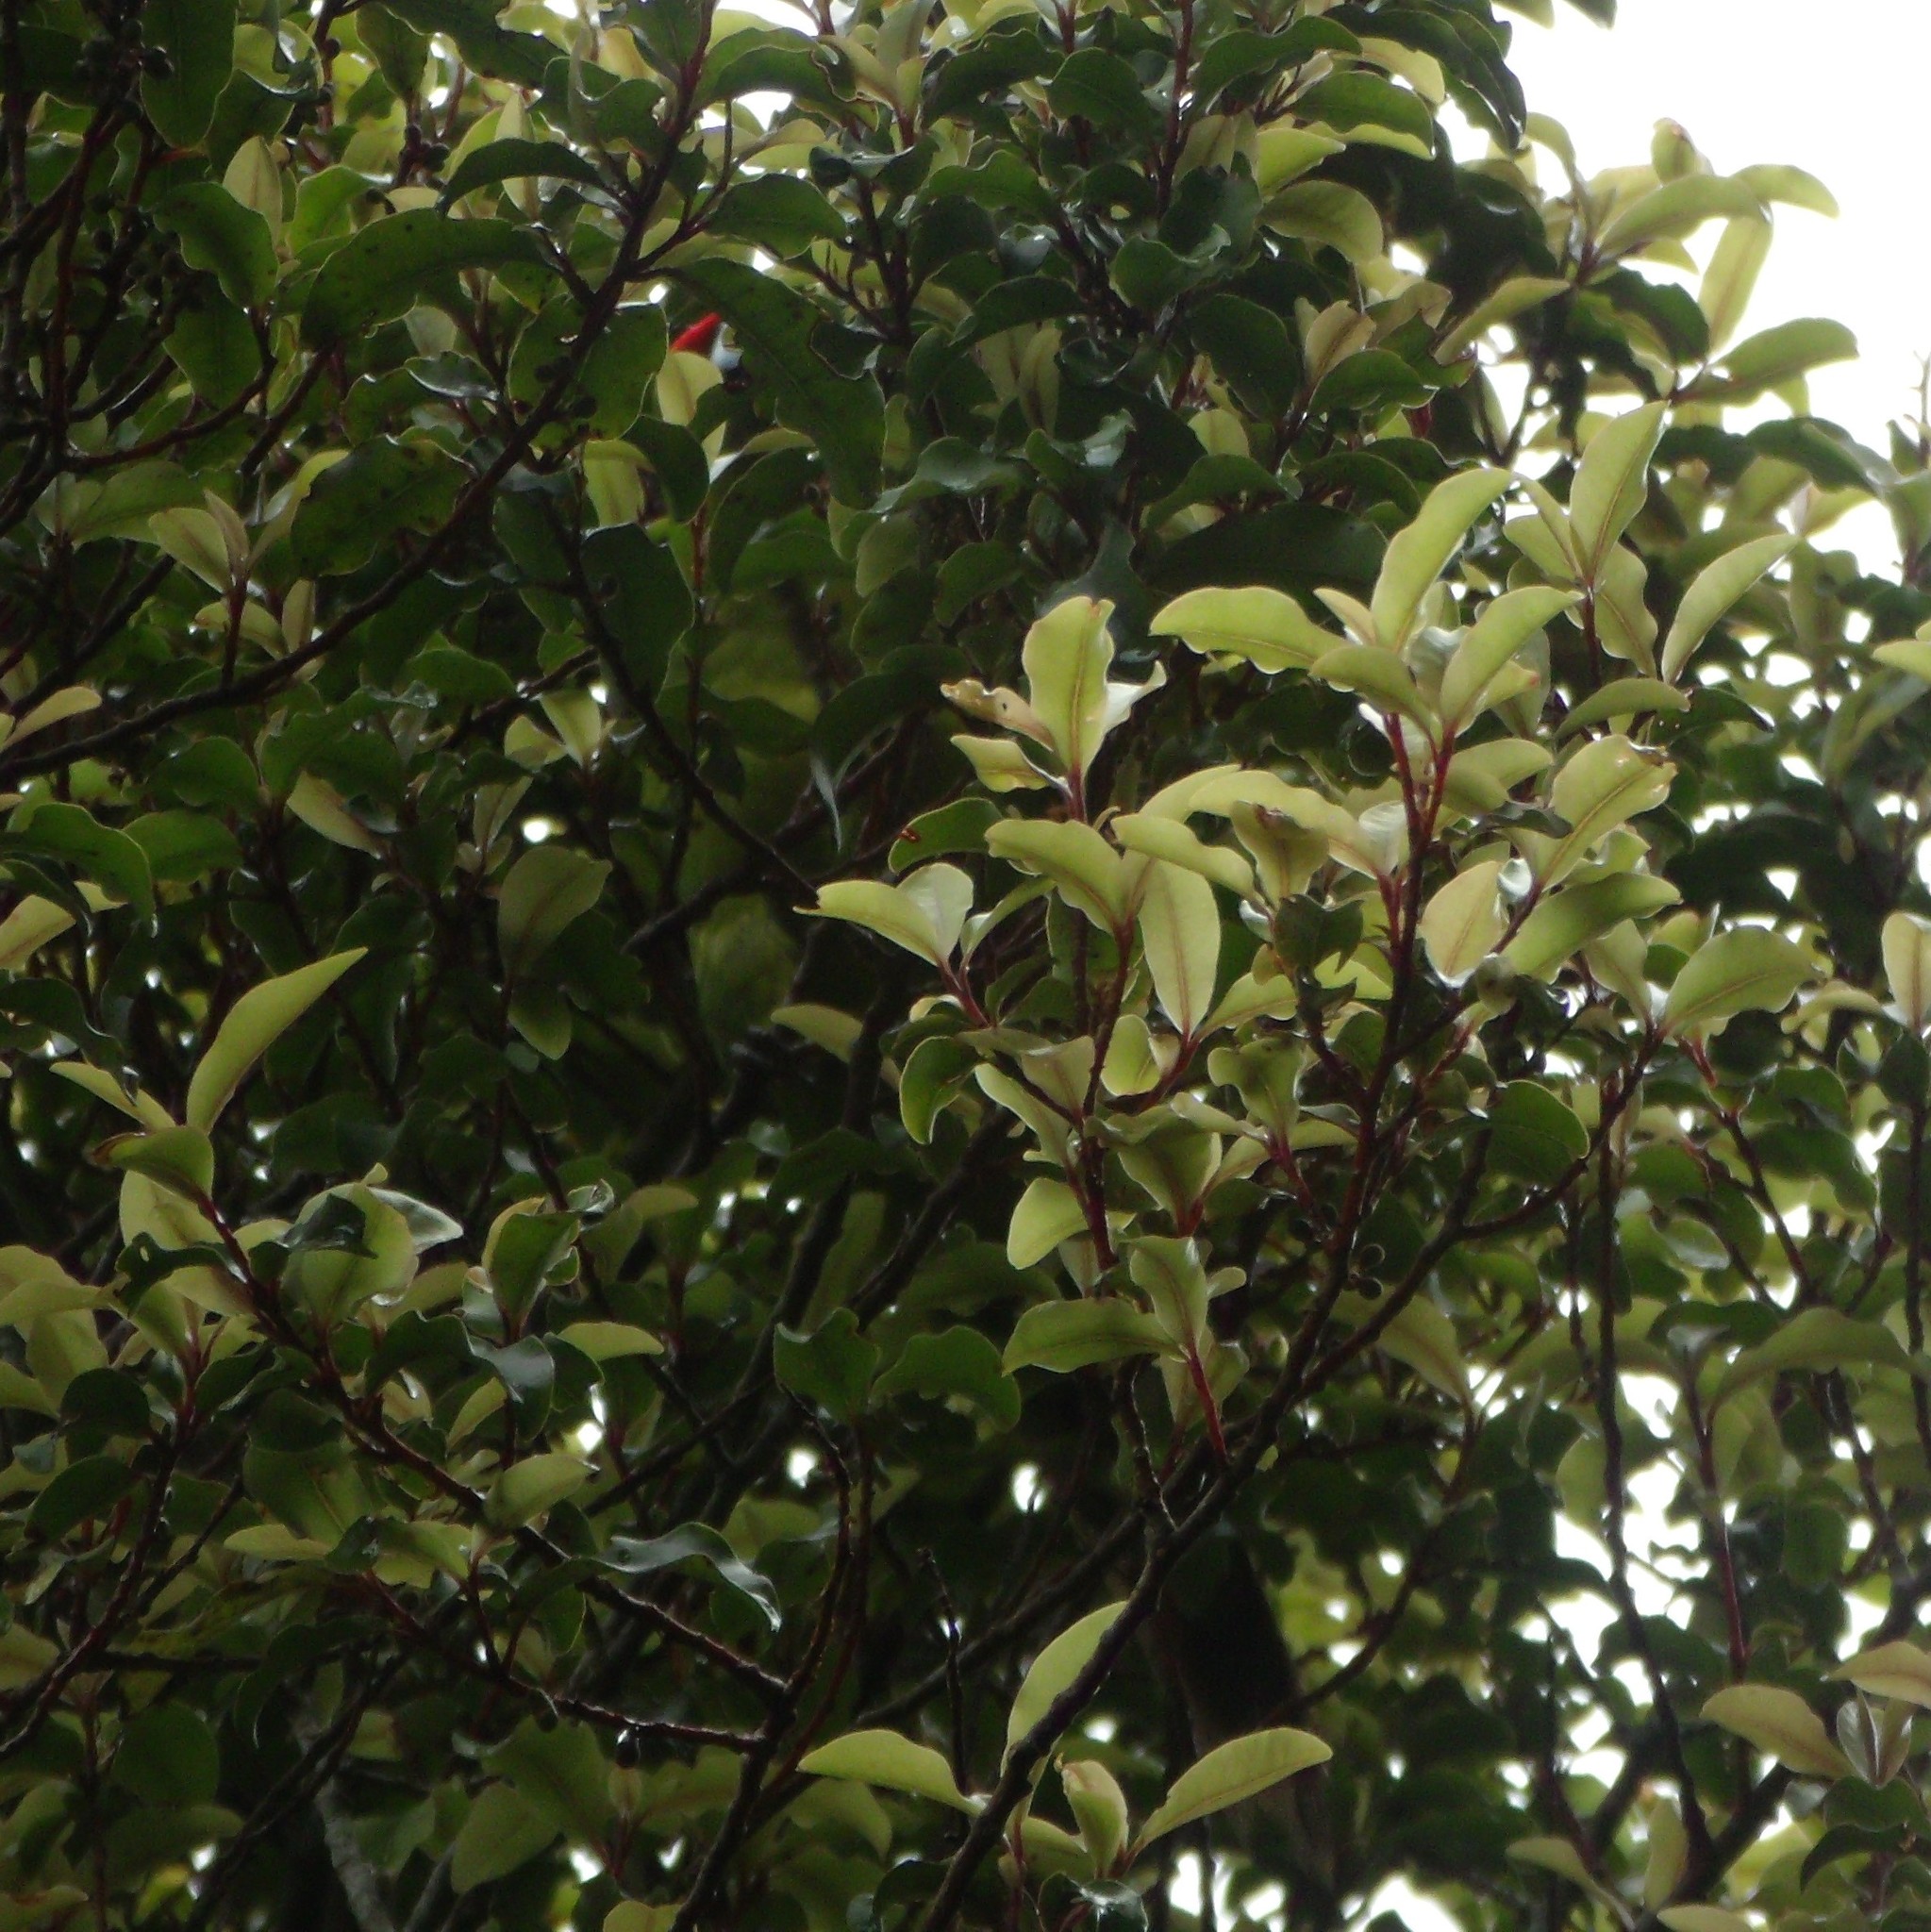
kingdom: Animalia
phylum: Chordata
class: Aves
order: Psittaciformes
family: Psittacidae
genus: Cyanoramphus
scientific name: Cyanoramphus novaezelandiae
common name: Red-fronted parakeet
